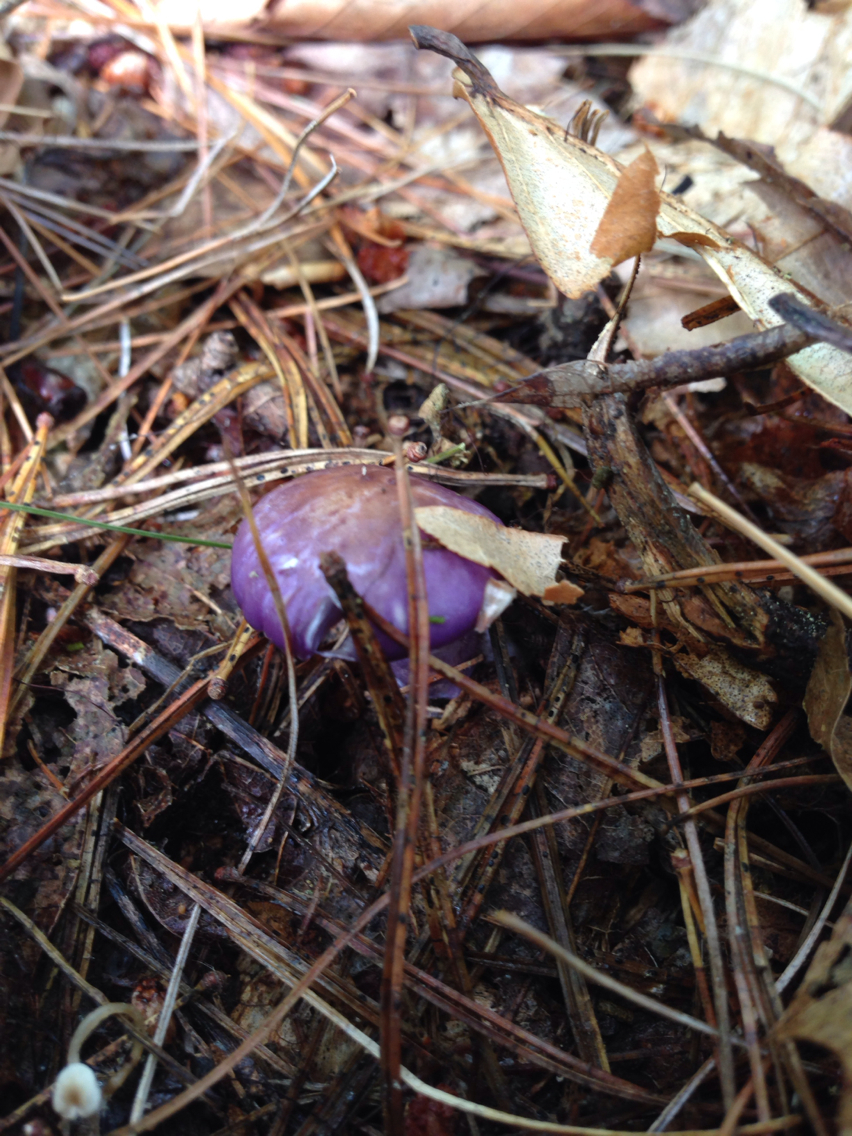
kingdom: Fungi
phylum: Basidiomycota
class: Agaricomycetes
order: Agaricales
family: Cortinariaceae
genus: Cortinarius
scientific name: Cortinarius iodes
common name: Viscid violet cort
